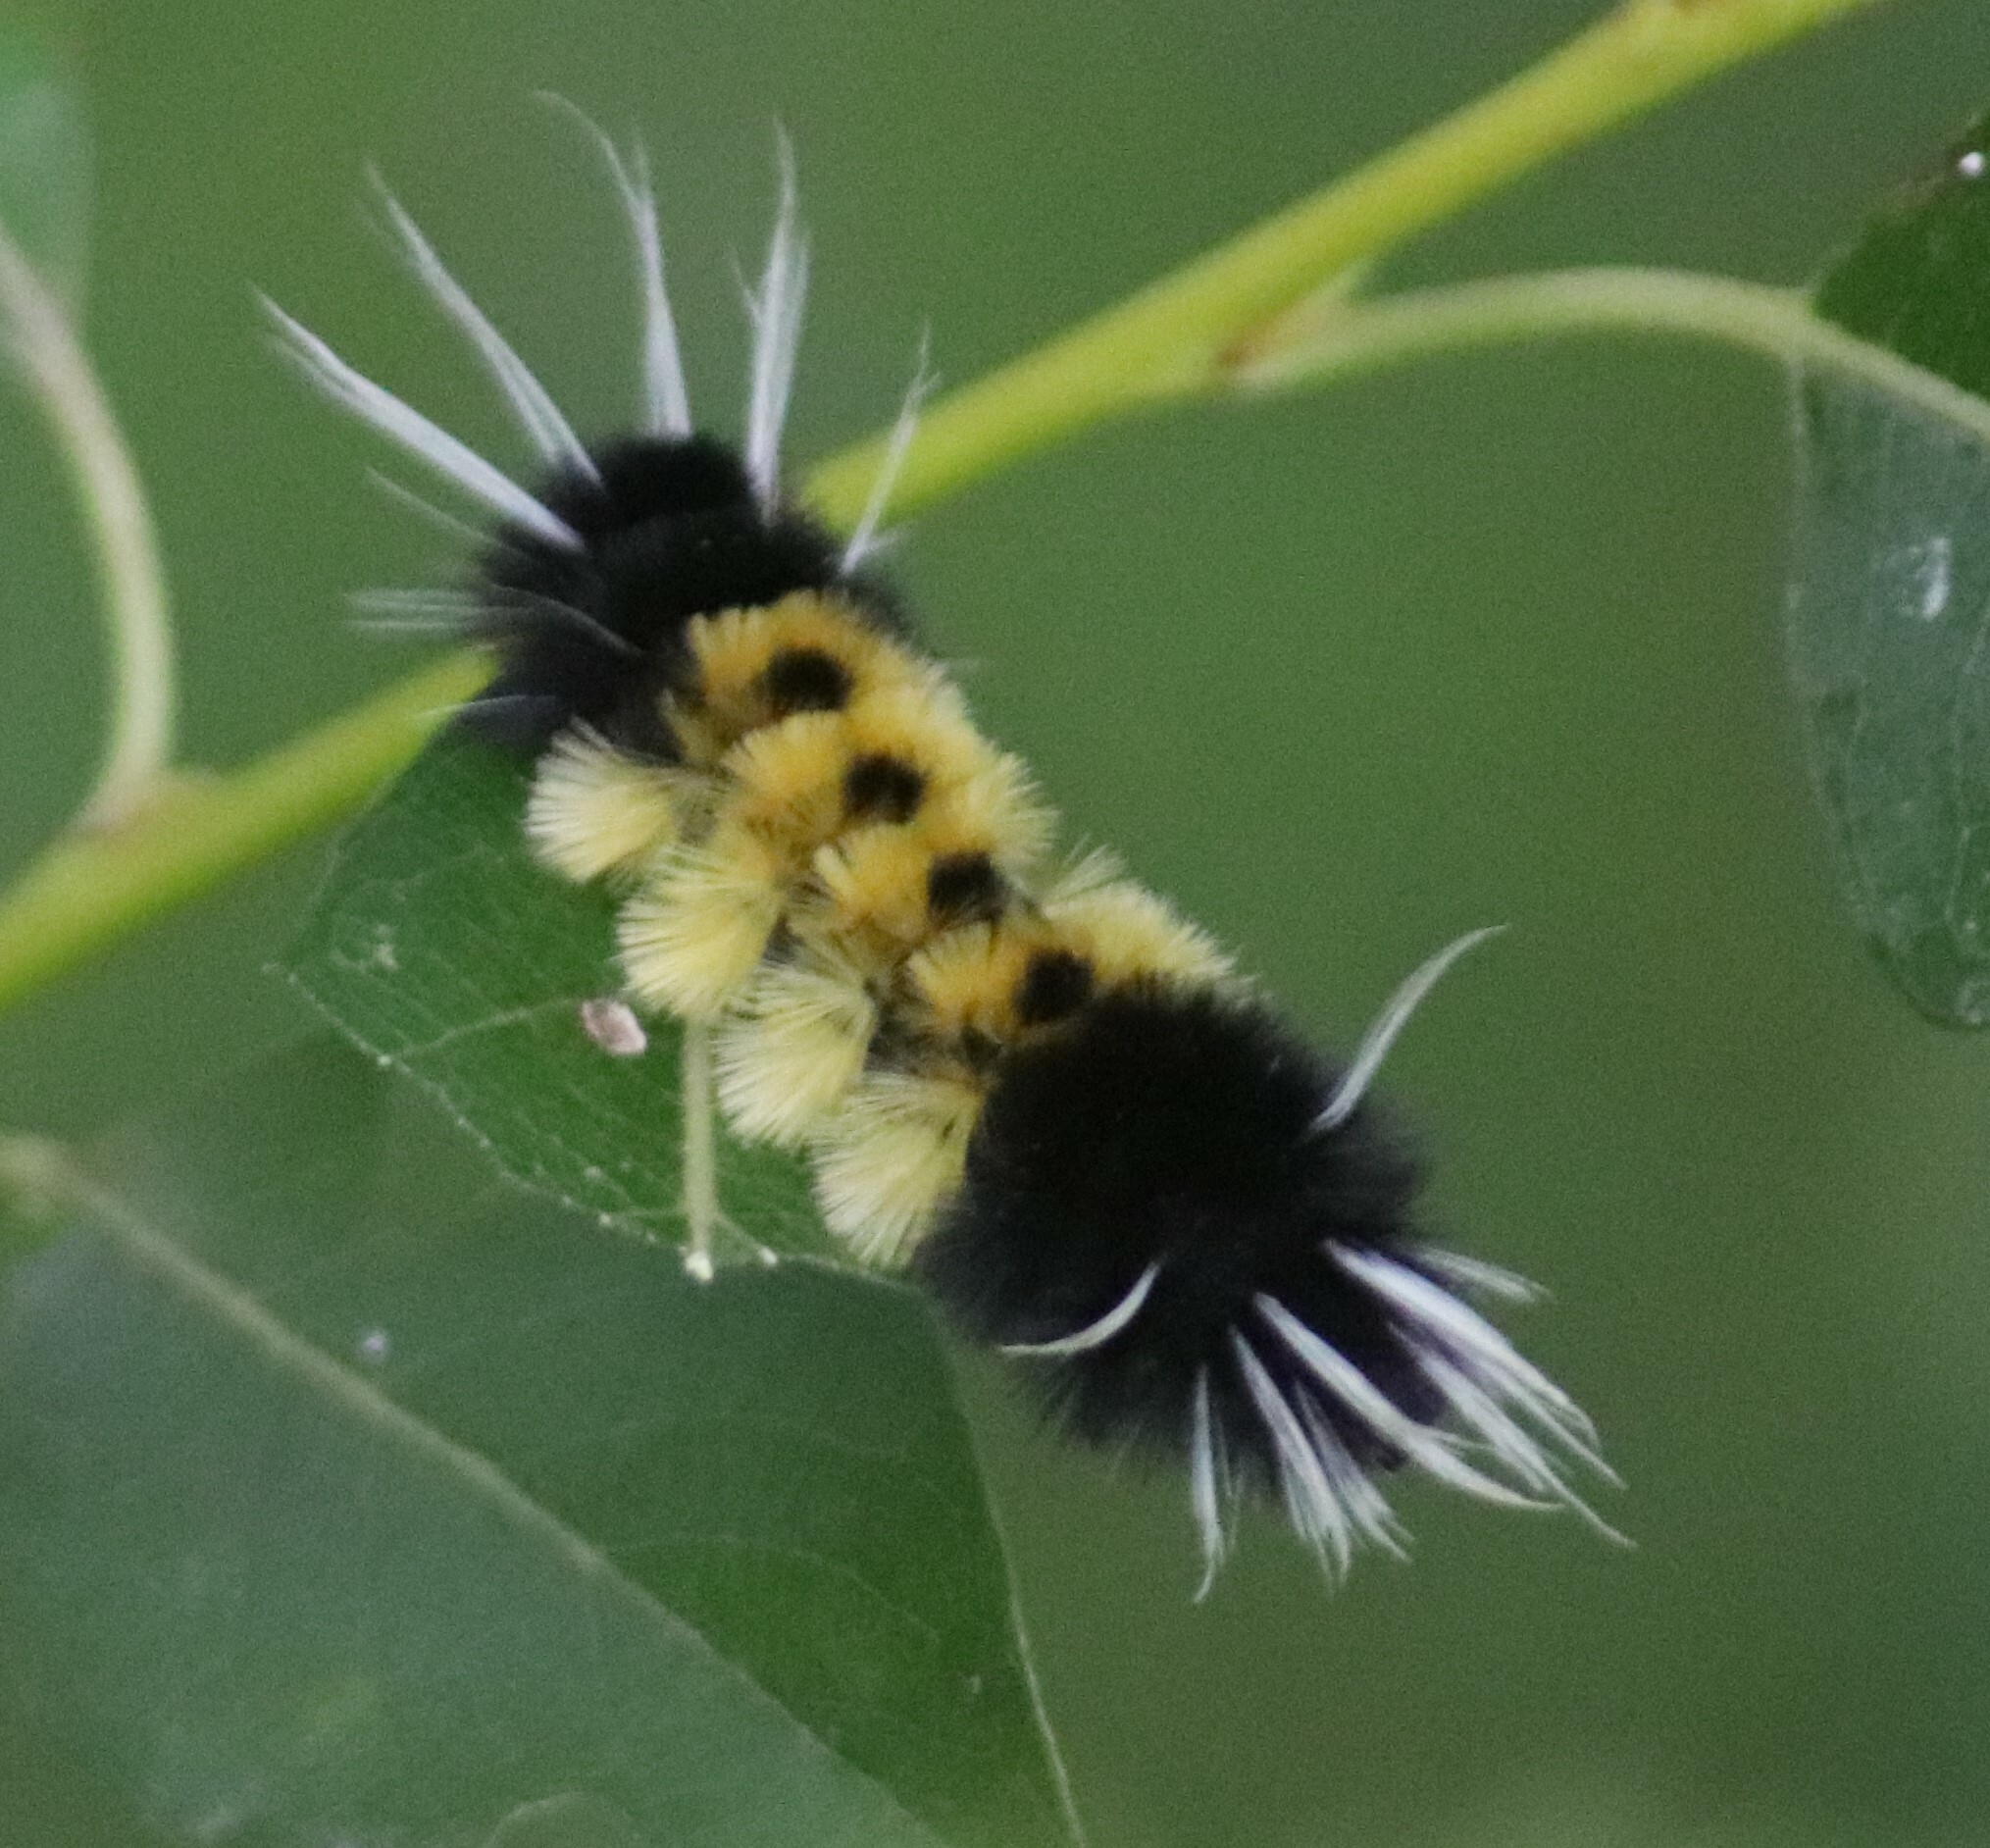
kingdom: Animalia
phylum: Arthropoda
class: Insecta
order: Lepidoptera
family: Erebidae
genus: Lophocampa
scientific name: Lophocampa maculata
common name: Spotted tussock moth
